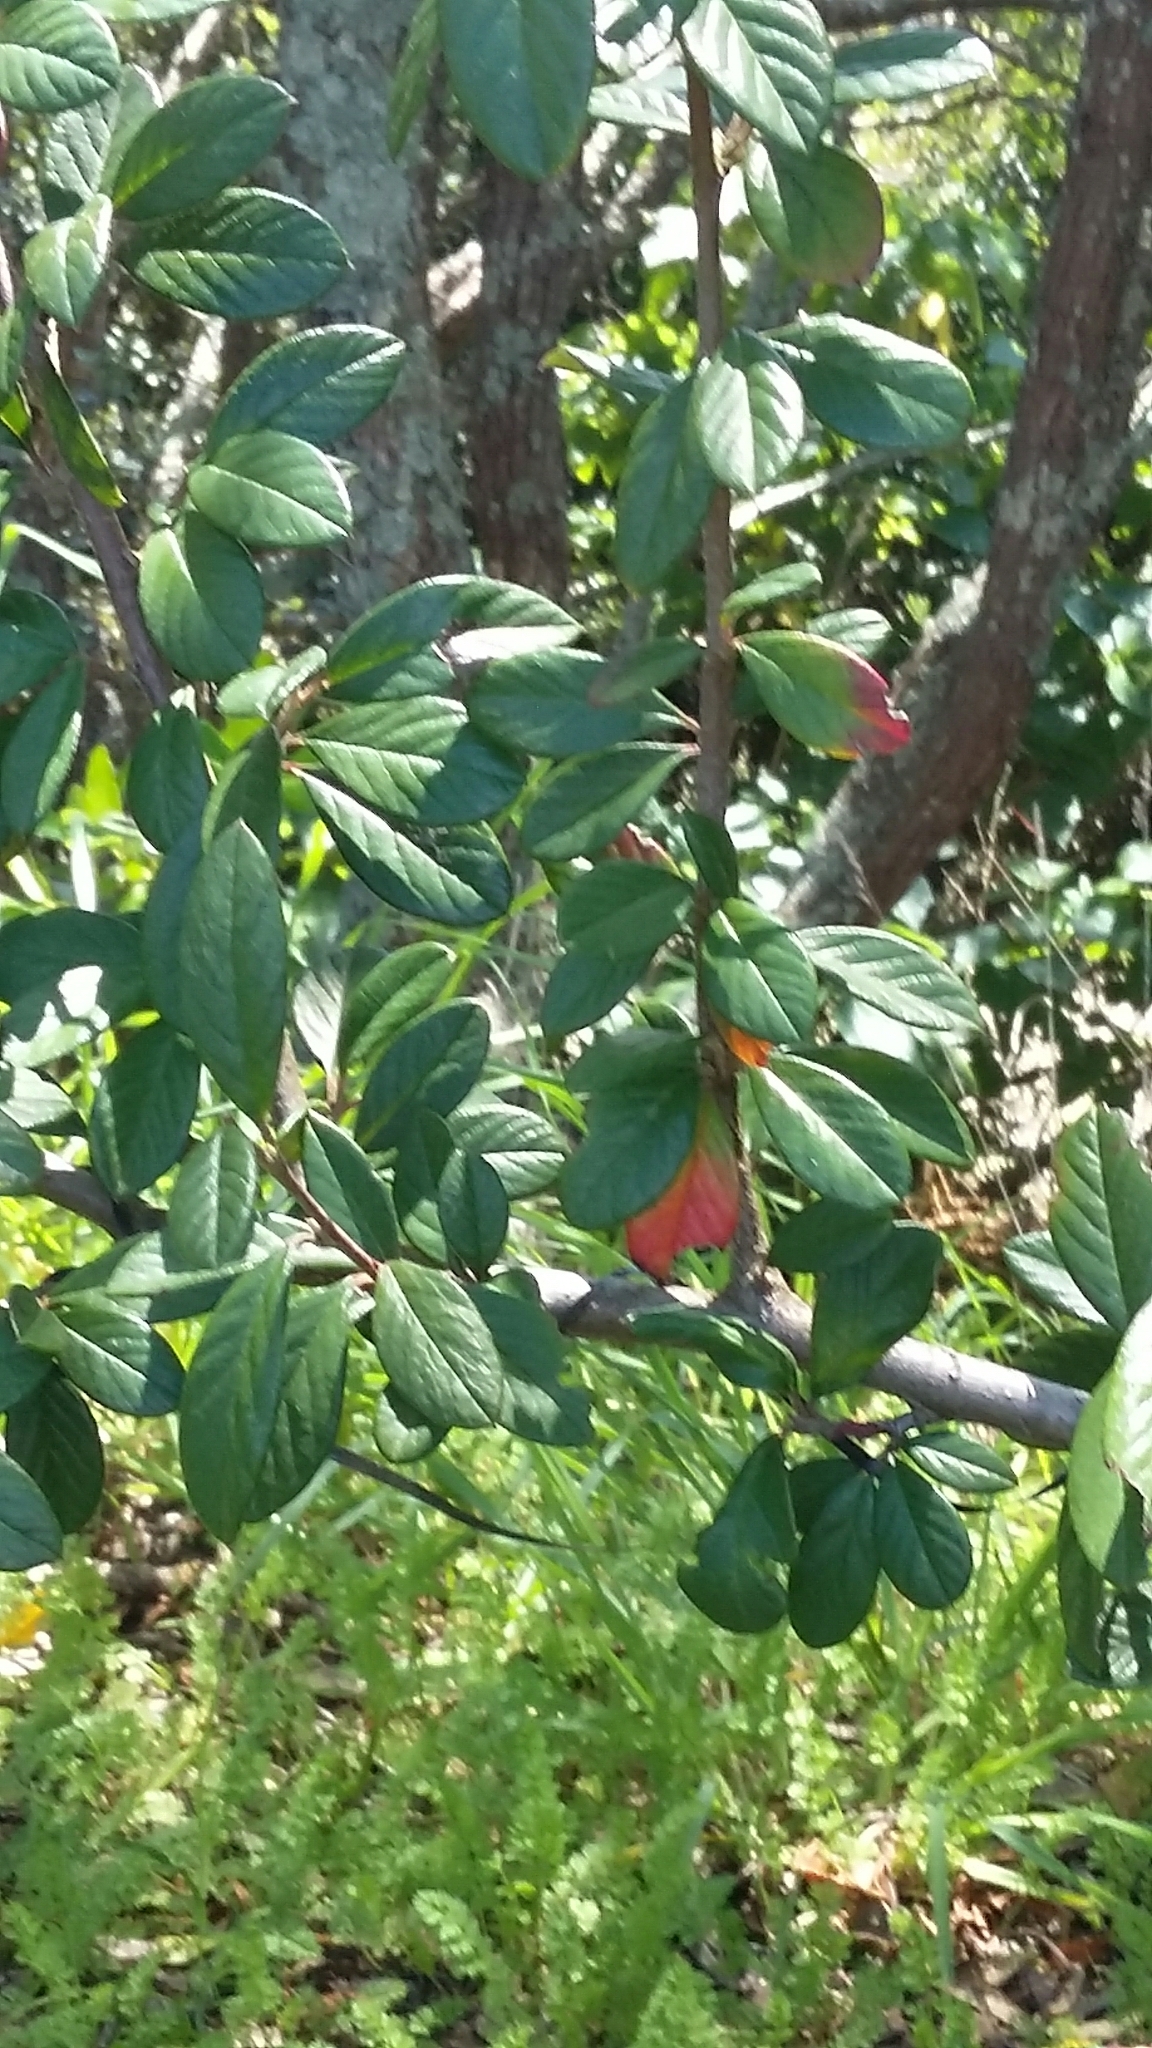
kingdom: Plantae
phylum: Tracheophyta
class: Magnoliopsida
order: Rosales
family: Rosaceae
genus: Cotoneaster
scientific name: Cotoneaster coriaceus
